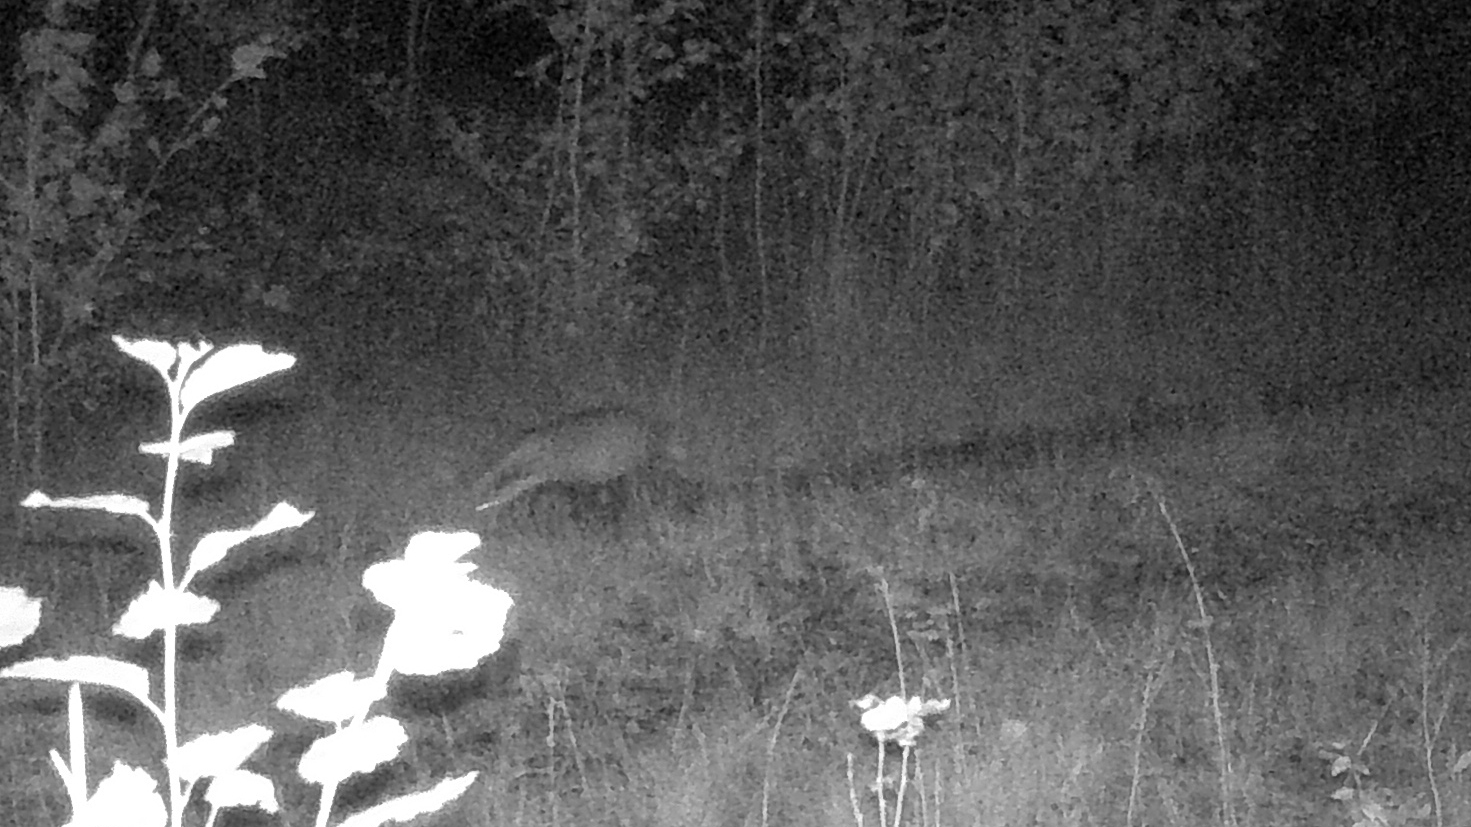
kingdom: Animalia
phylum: Chordata
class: Mammalia
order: Carnivora
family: Mustelidae
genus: Meles
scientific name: Meles meles
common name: Eurasian badger
